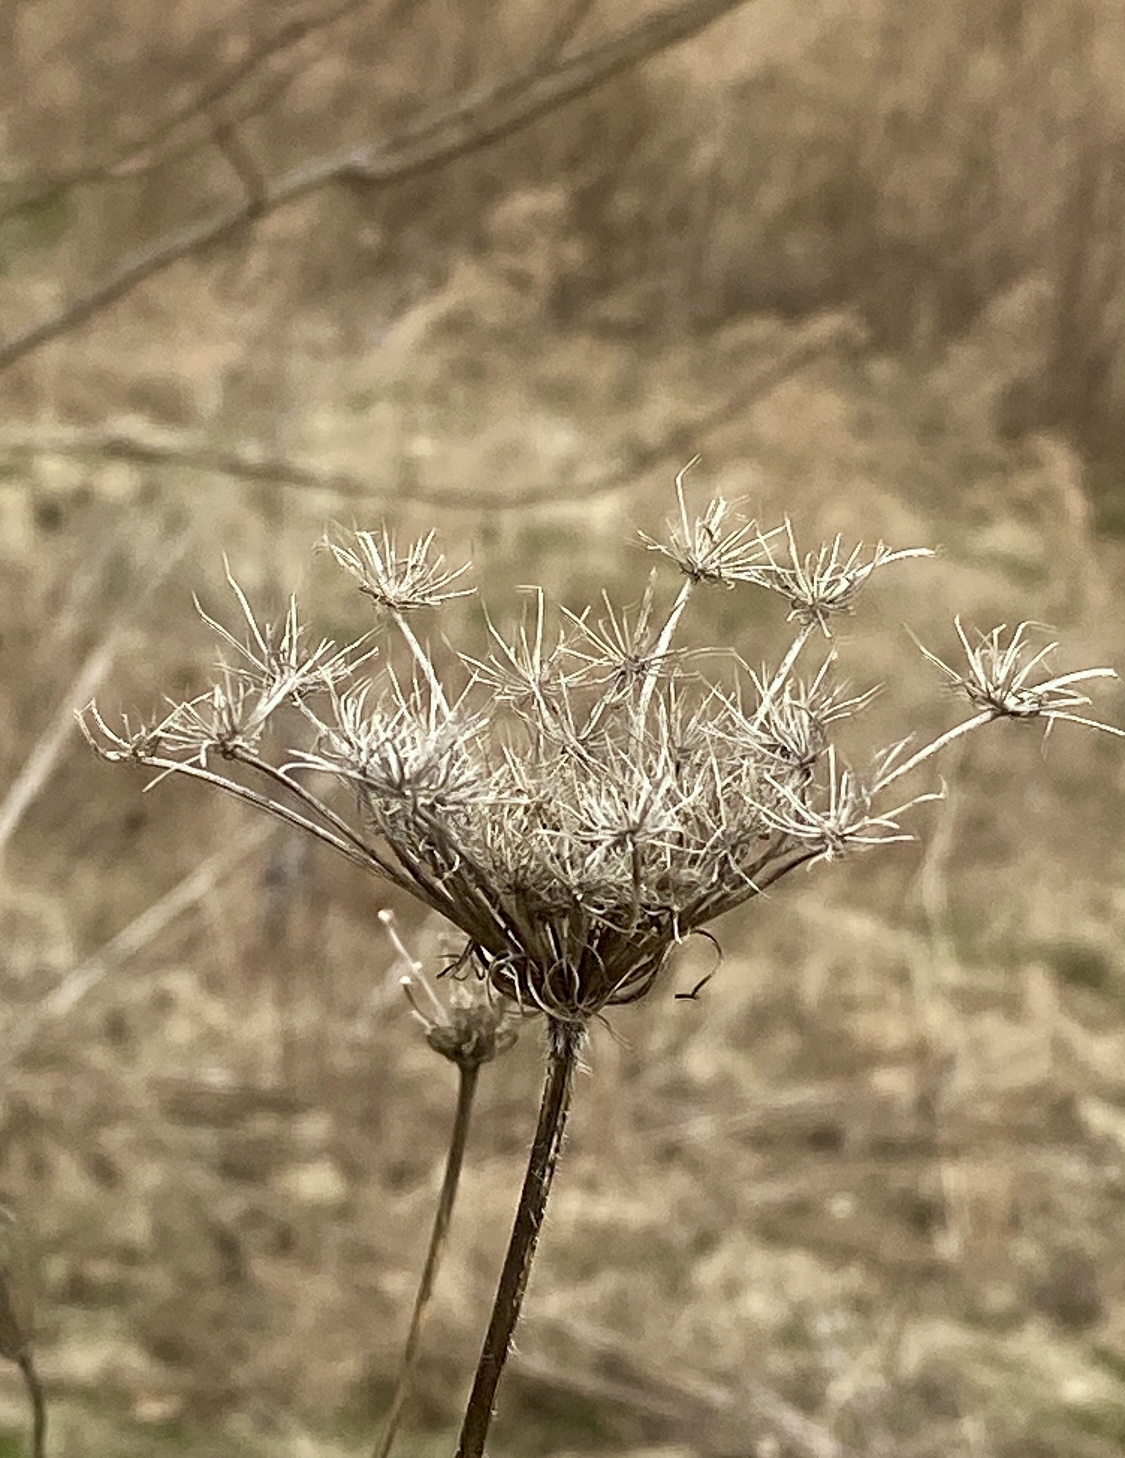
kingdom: Plantae
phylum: Tracheophyta
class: Magnoliopsida
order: Apiales
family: Apiaceae
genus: Daucus
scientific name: Daucus carota
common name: Wild carrot
